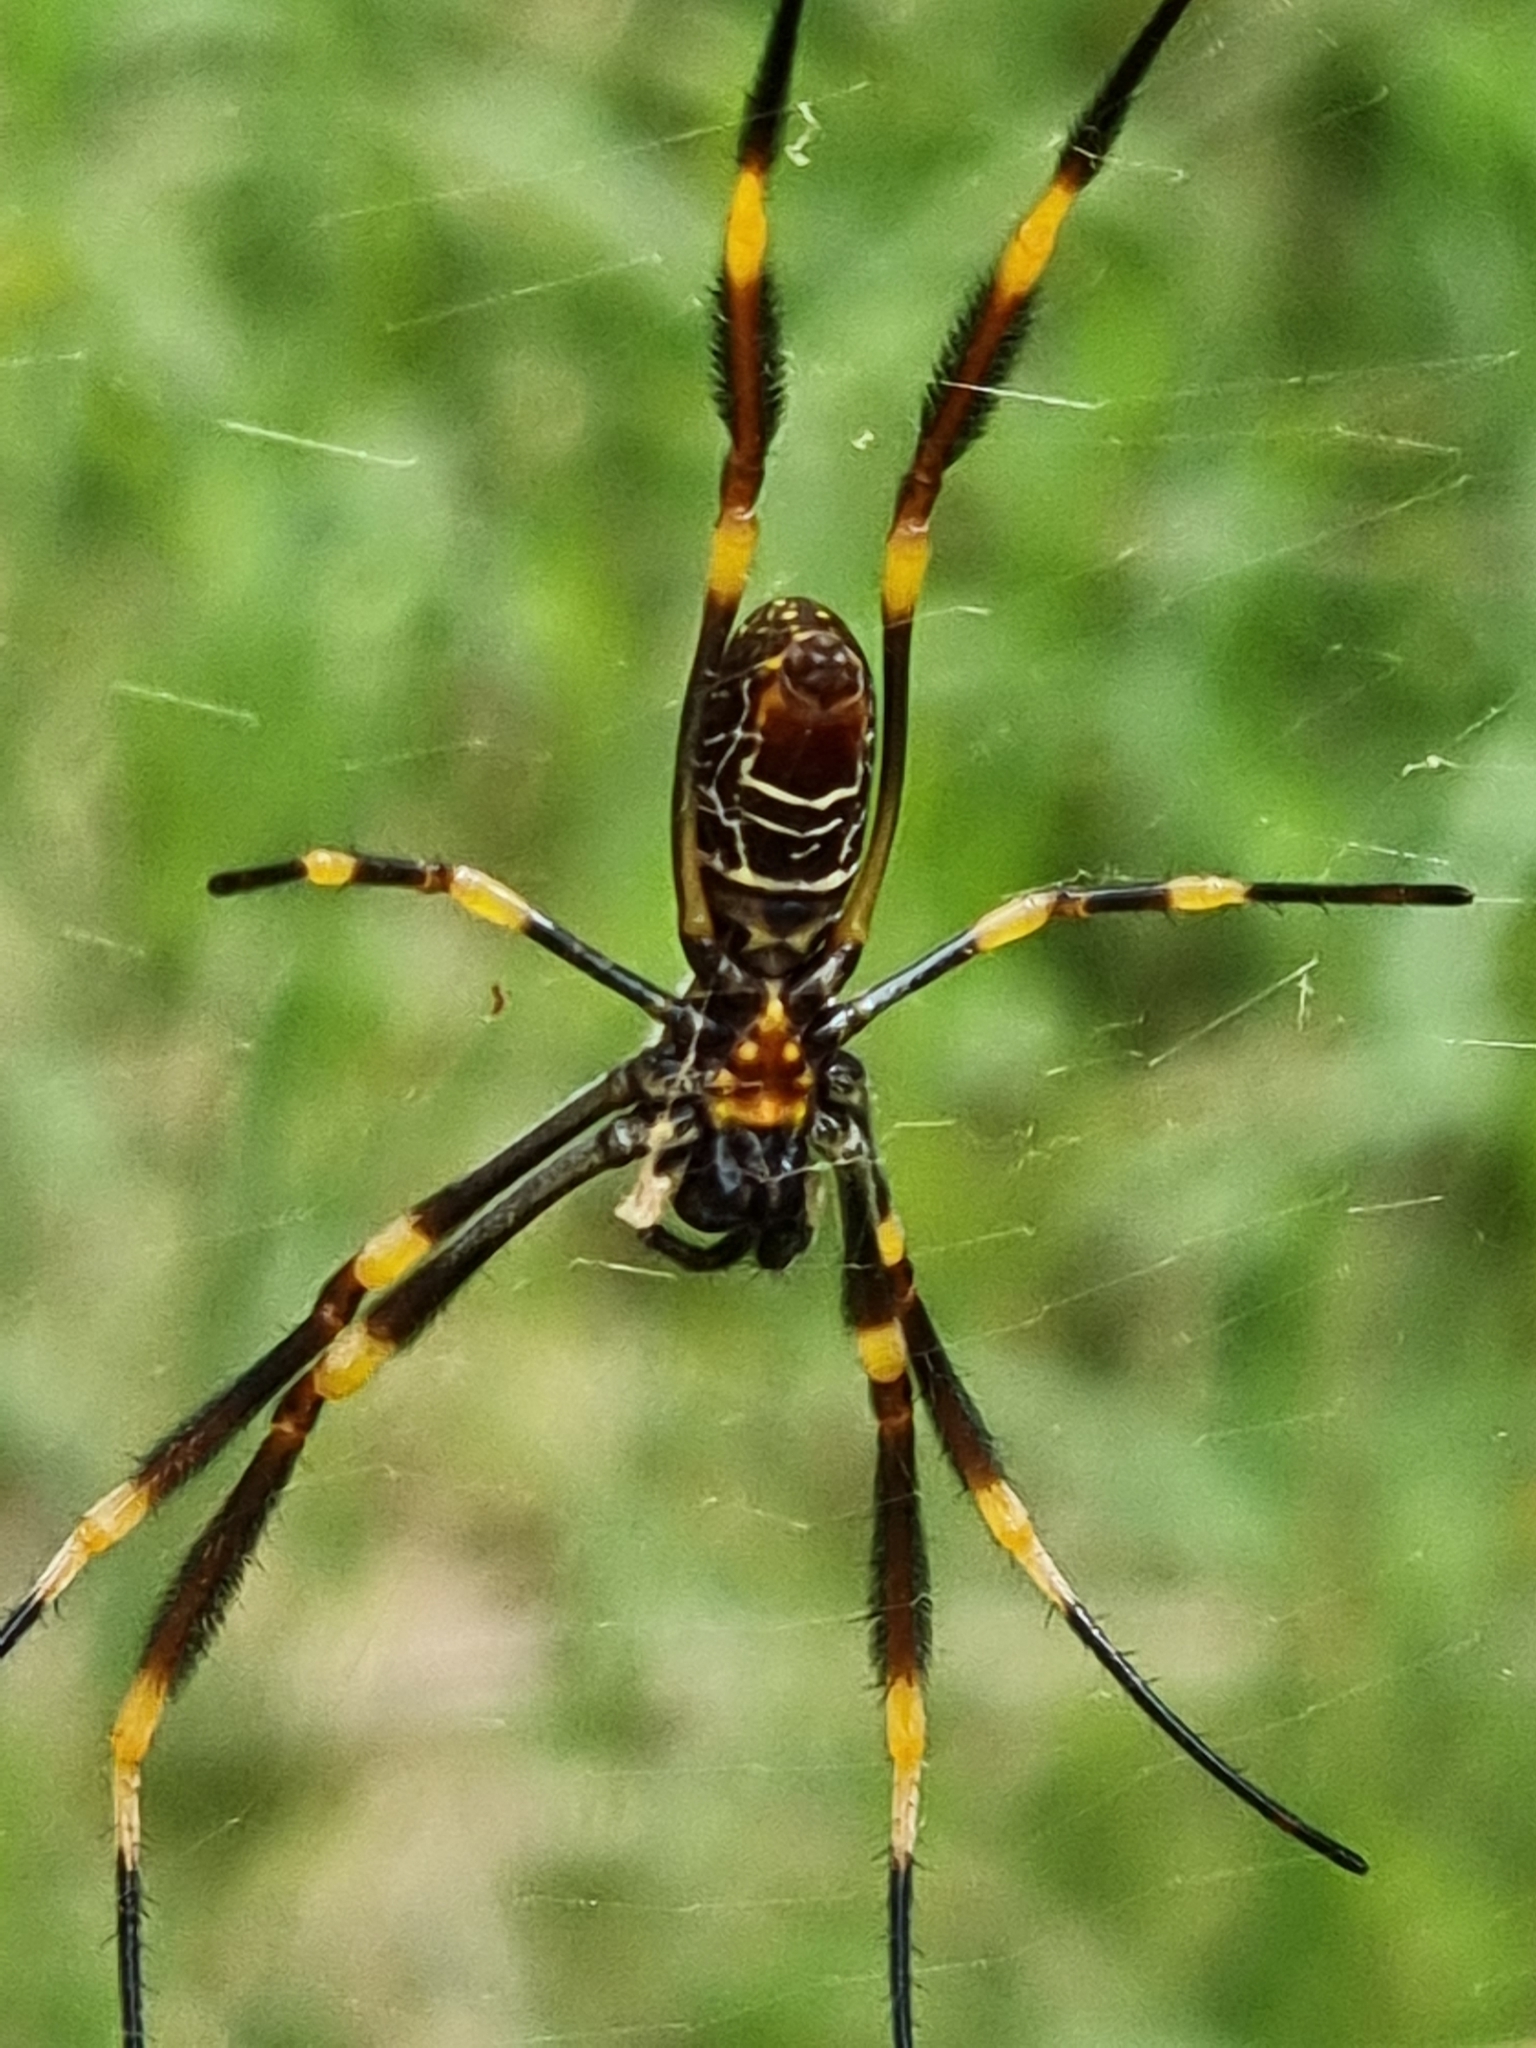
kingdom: Animalia
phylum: Arthropoda
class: Arachnida
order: Araneae
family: Araneidae
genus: Trichonephila
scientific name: Trichonephila plumipes
